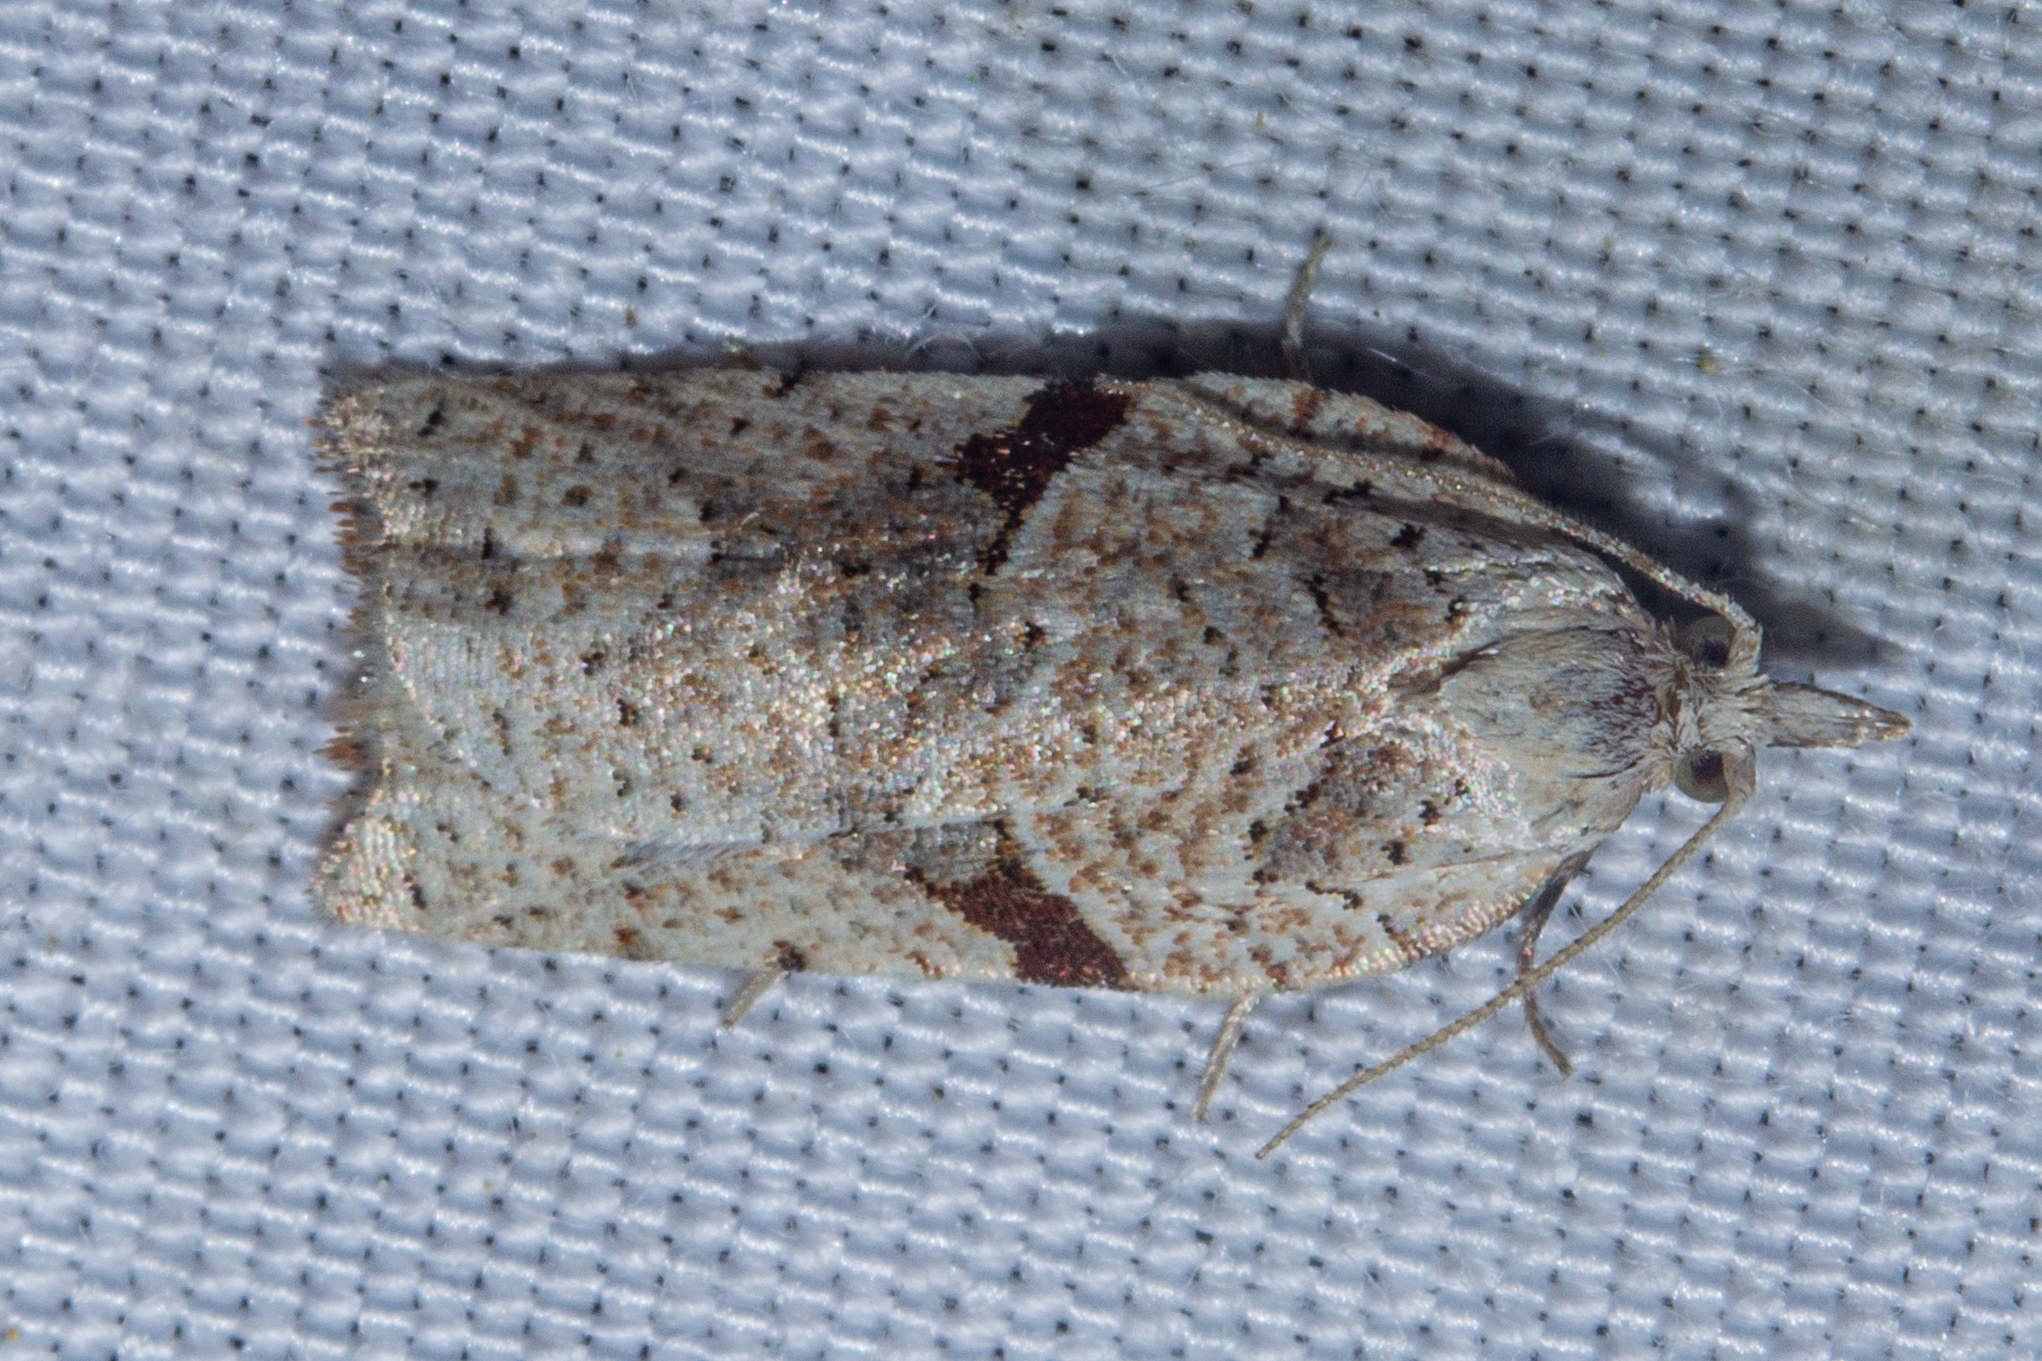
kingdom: Animalia
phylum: Arthropoda
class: Insecta
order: Lepidoptera
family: Tortricidae
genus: Leucotenes
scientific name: Leucotenes coprosmae
